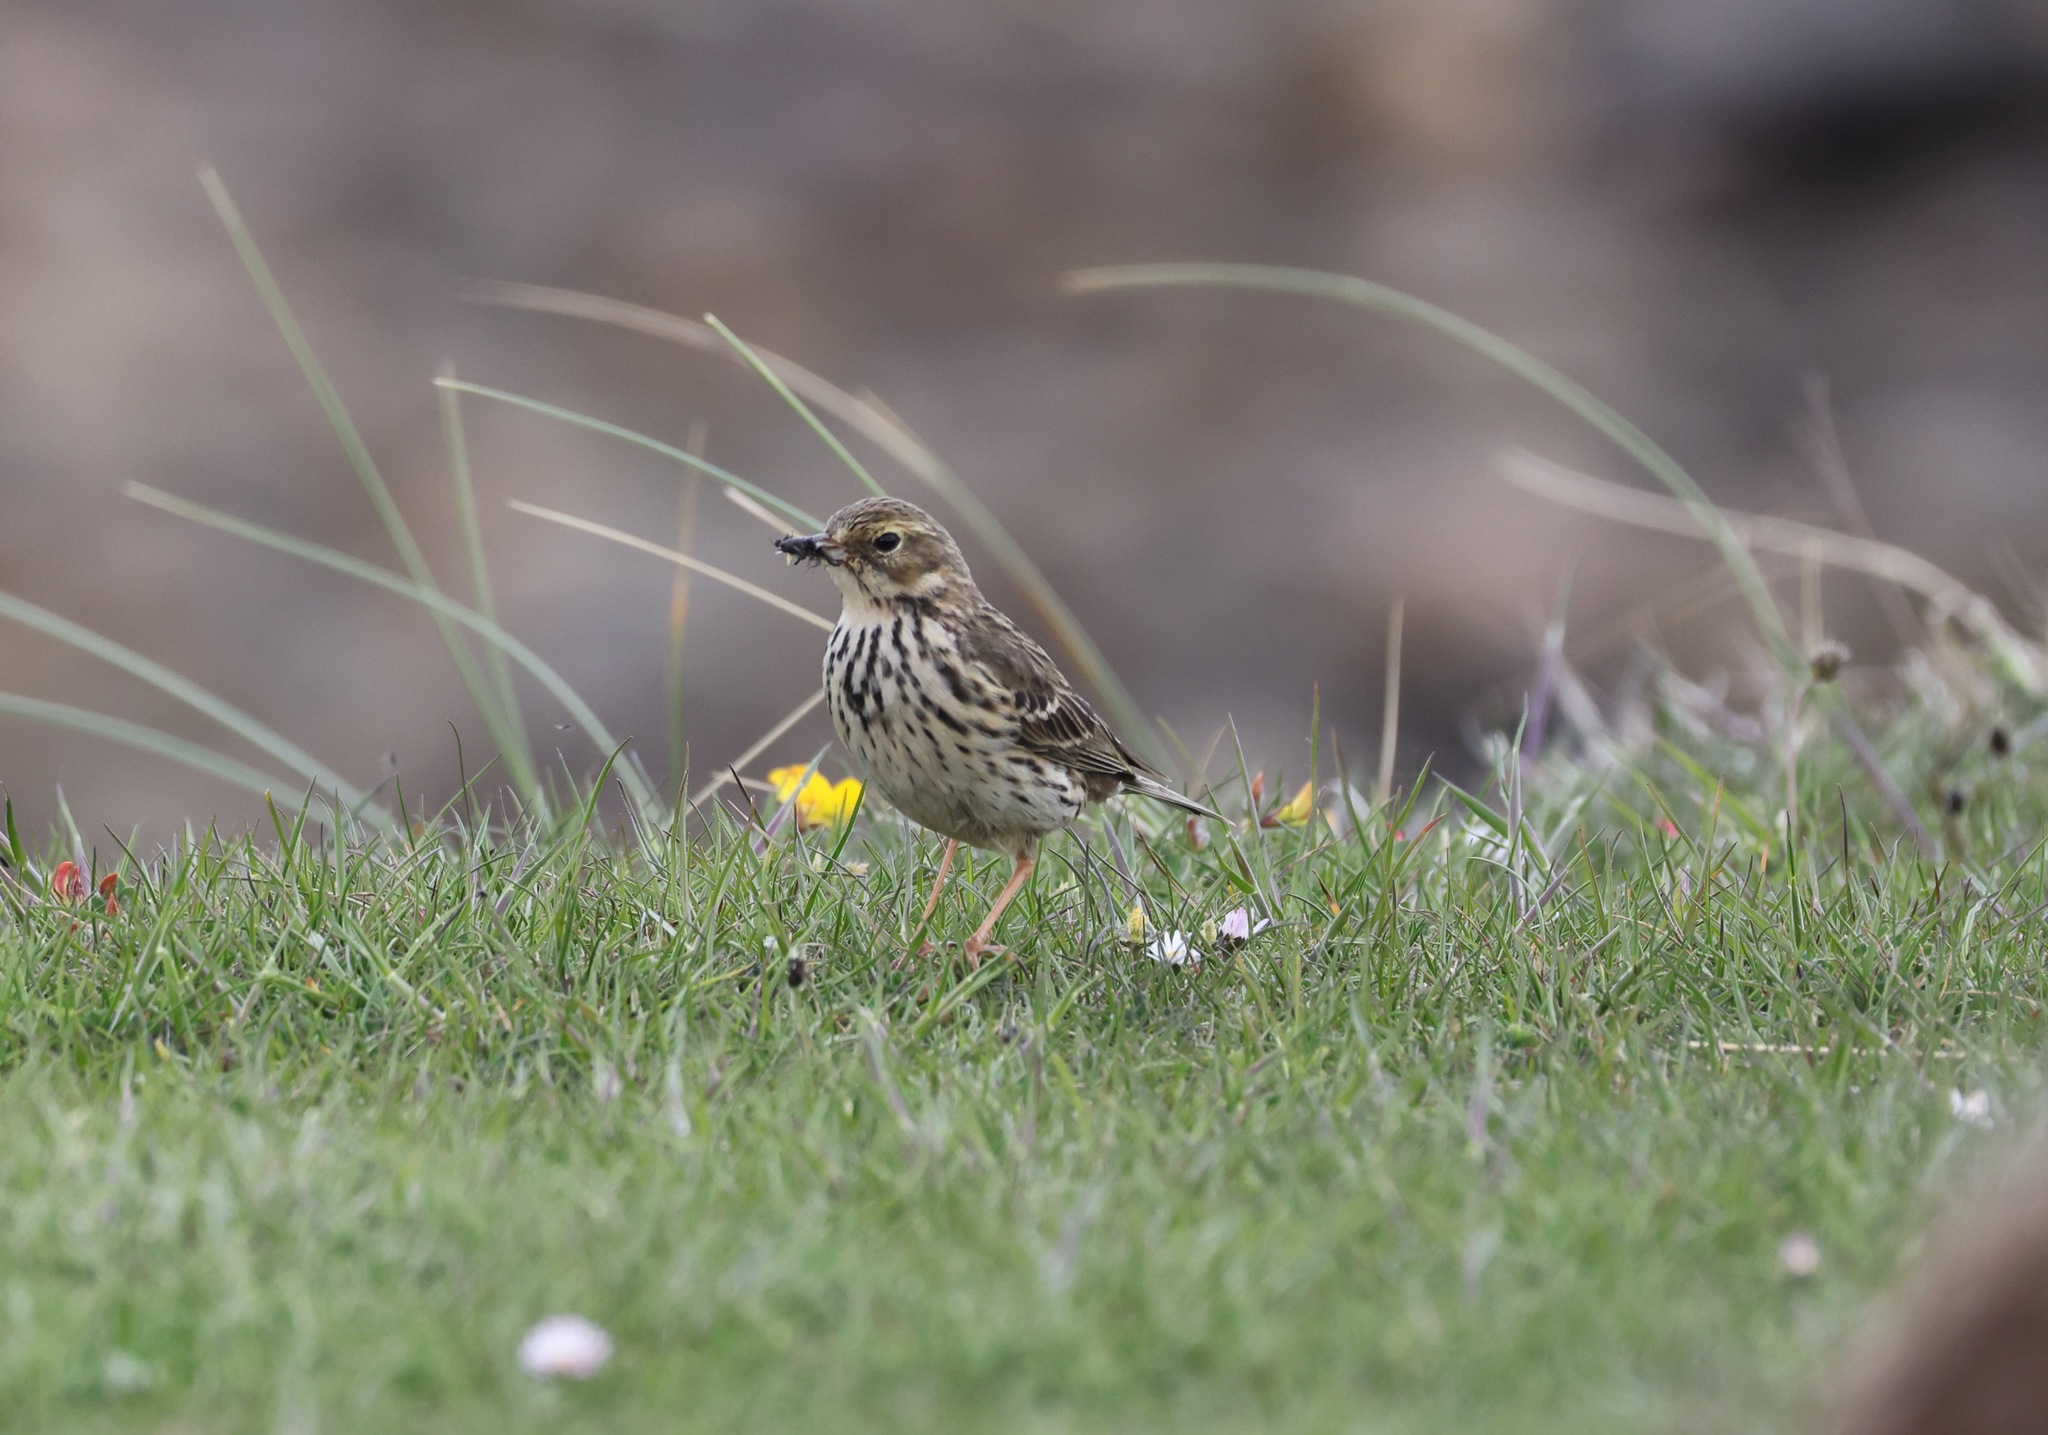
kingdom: Animalia
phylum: Chordata
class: Aves
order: Passeriformes
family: Motacillidae
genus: Anthus
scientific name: Anthus pratensis
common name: Meadow pipit
